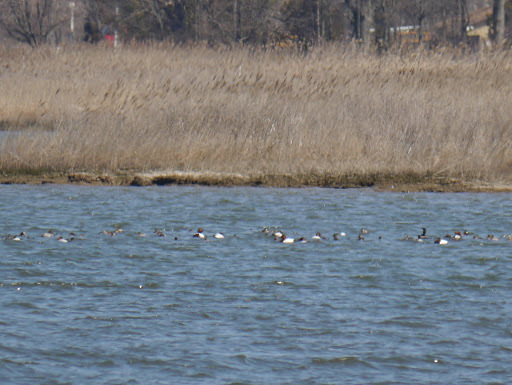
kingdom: Animalia
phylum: Chordata
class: Aves
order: Anseriformes
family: Anatidae
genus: Aythya
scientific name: Aythya valisineria
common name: Canvasback
